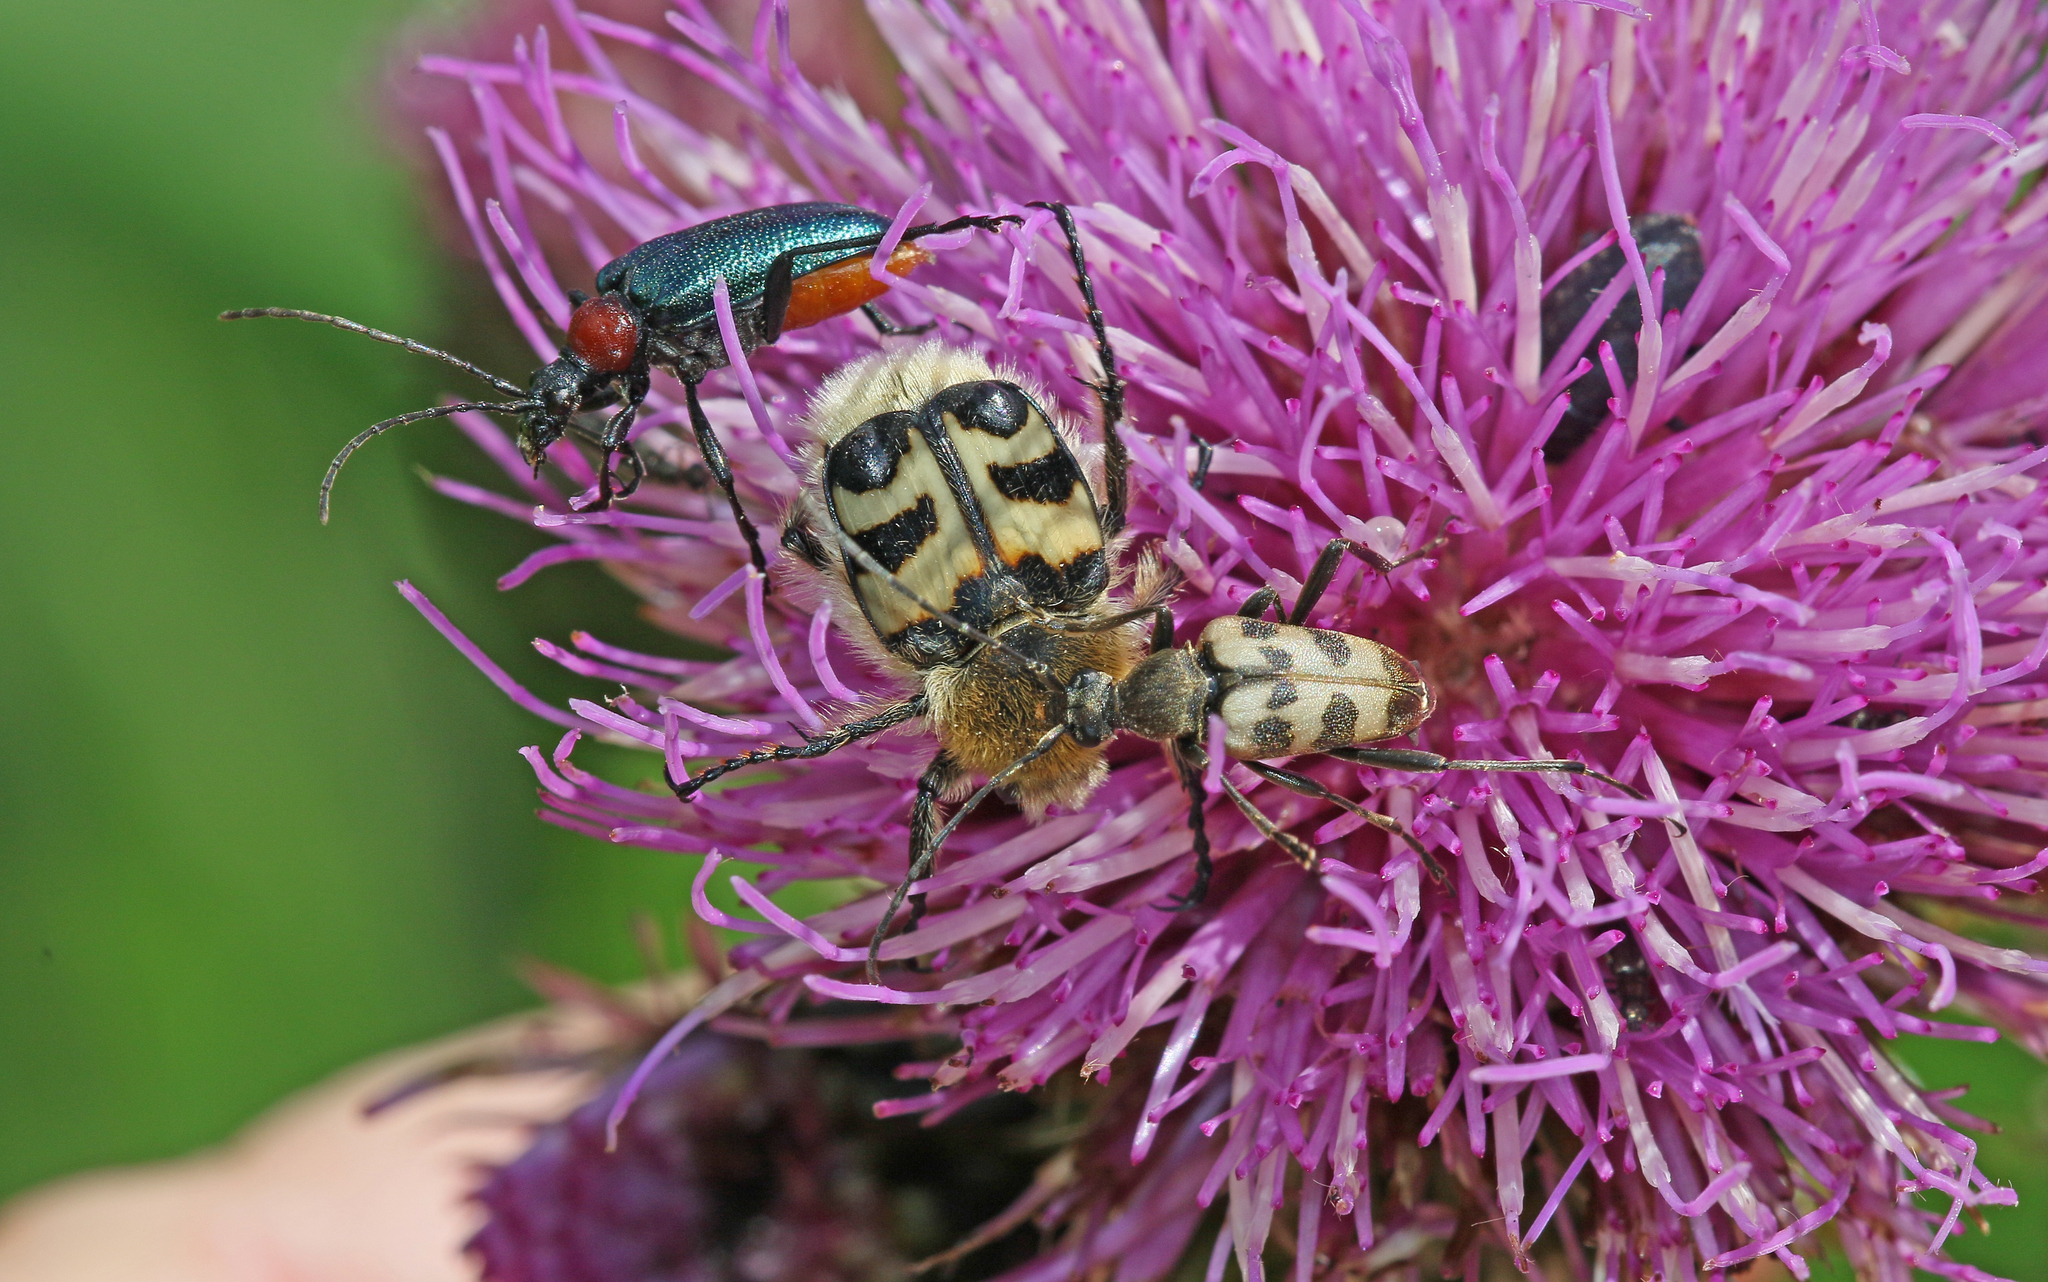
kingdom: Animalia
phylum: Arthropoda
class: Insecta
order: Coleoptera
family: Cerambycidae
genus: Pachytodes
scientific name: Pachytodes cerambyciformis
